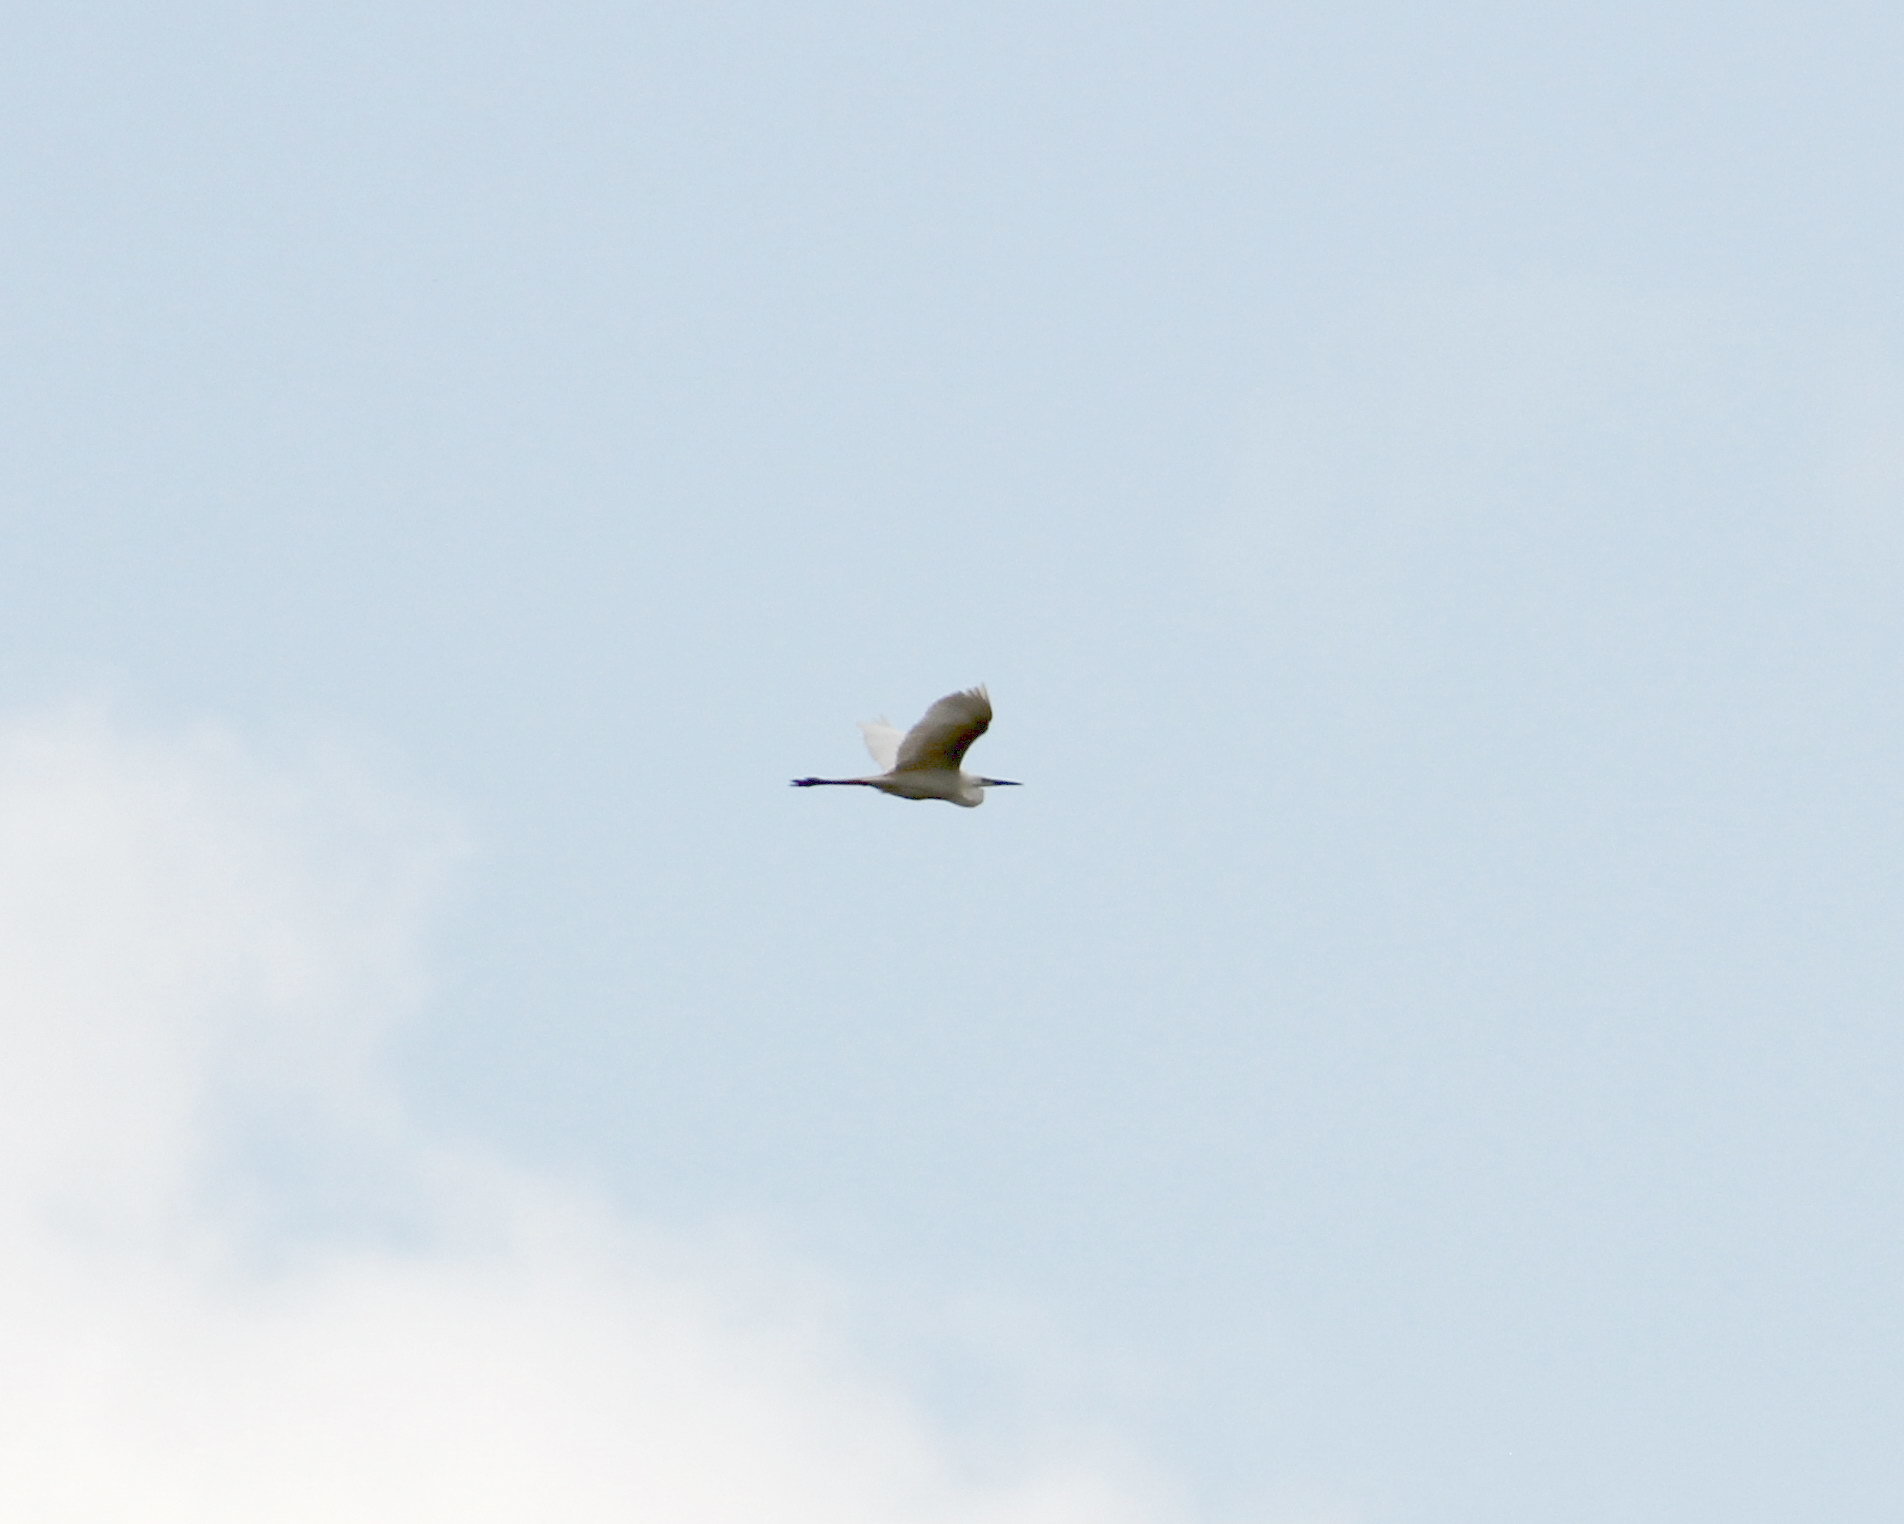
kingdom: Animalia
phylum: Chordata
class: Aves
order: Pelecaniformes
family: Ardeidae
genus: Ardea
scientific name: Ardea alba
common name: Great egret
